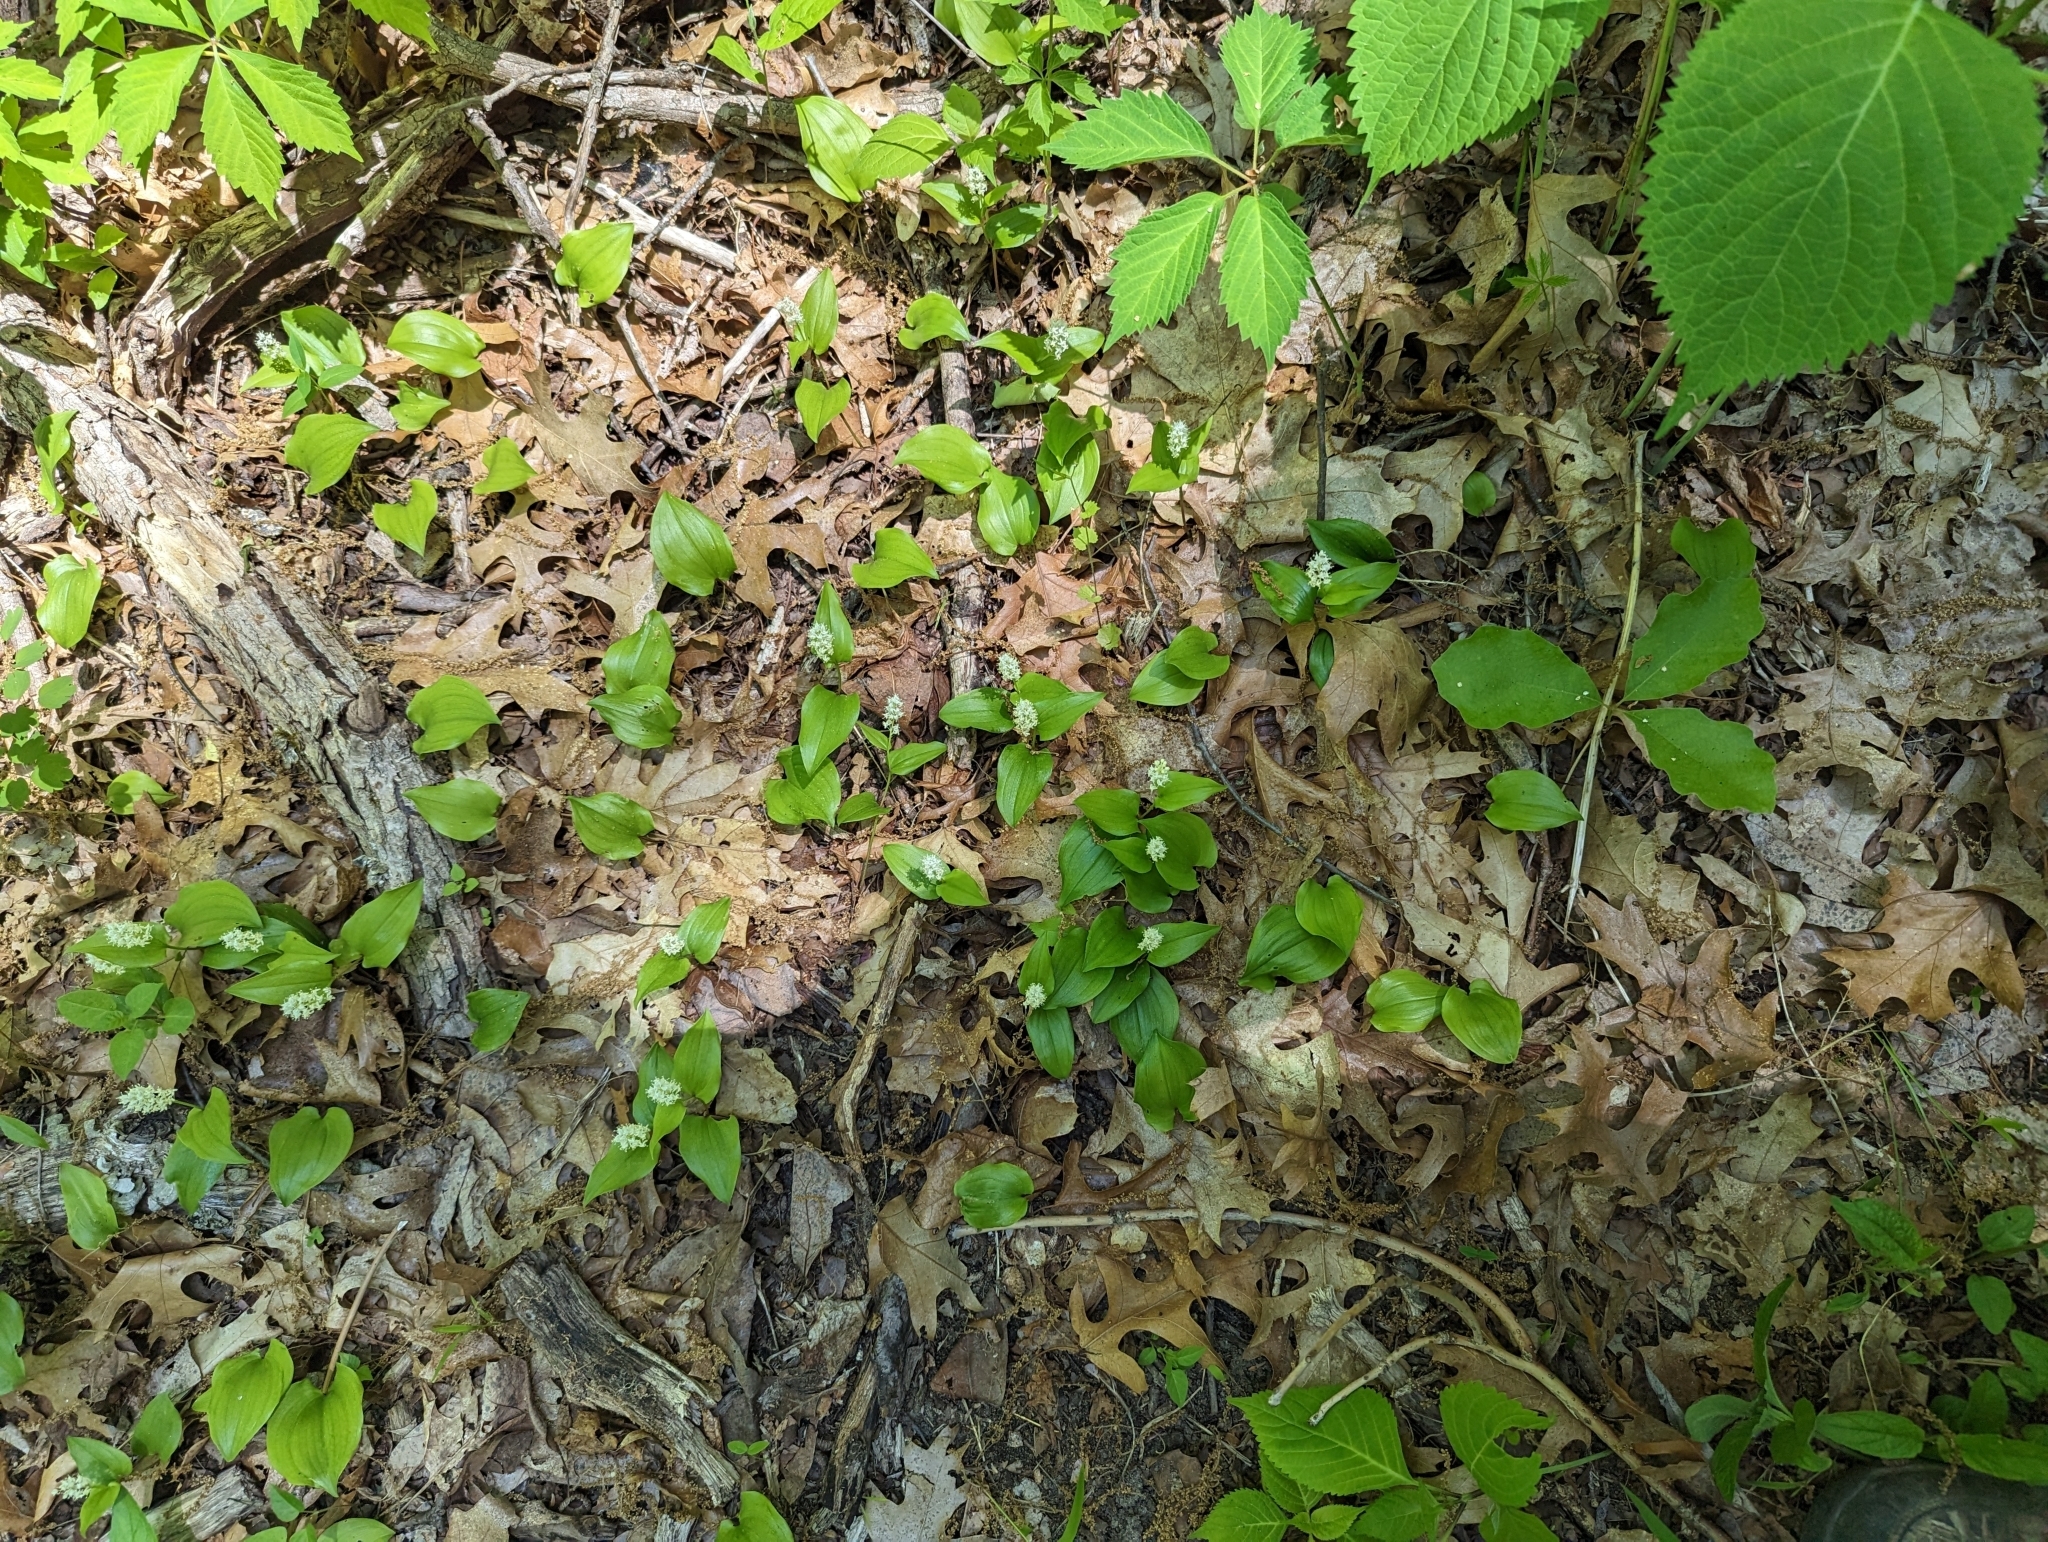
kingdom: Plantae
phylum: Tracheophyta
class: Liliopsida
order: Asparagales
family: Asparagaceae
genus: Maianthemum
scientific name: Maianthemum canadense
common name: False lily-of-the-valley
